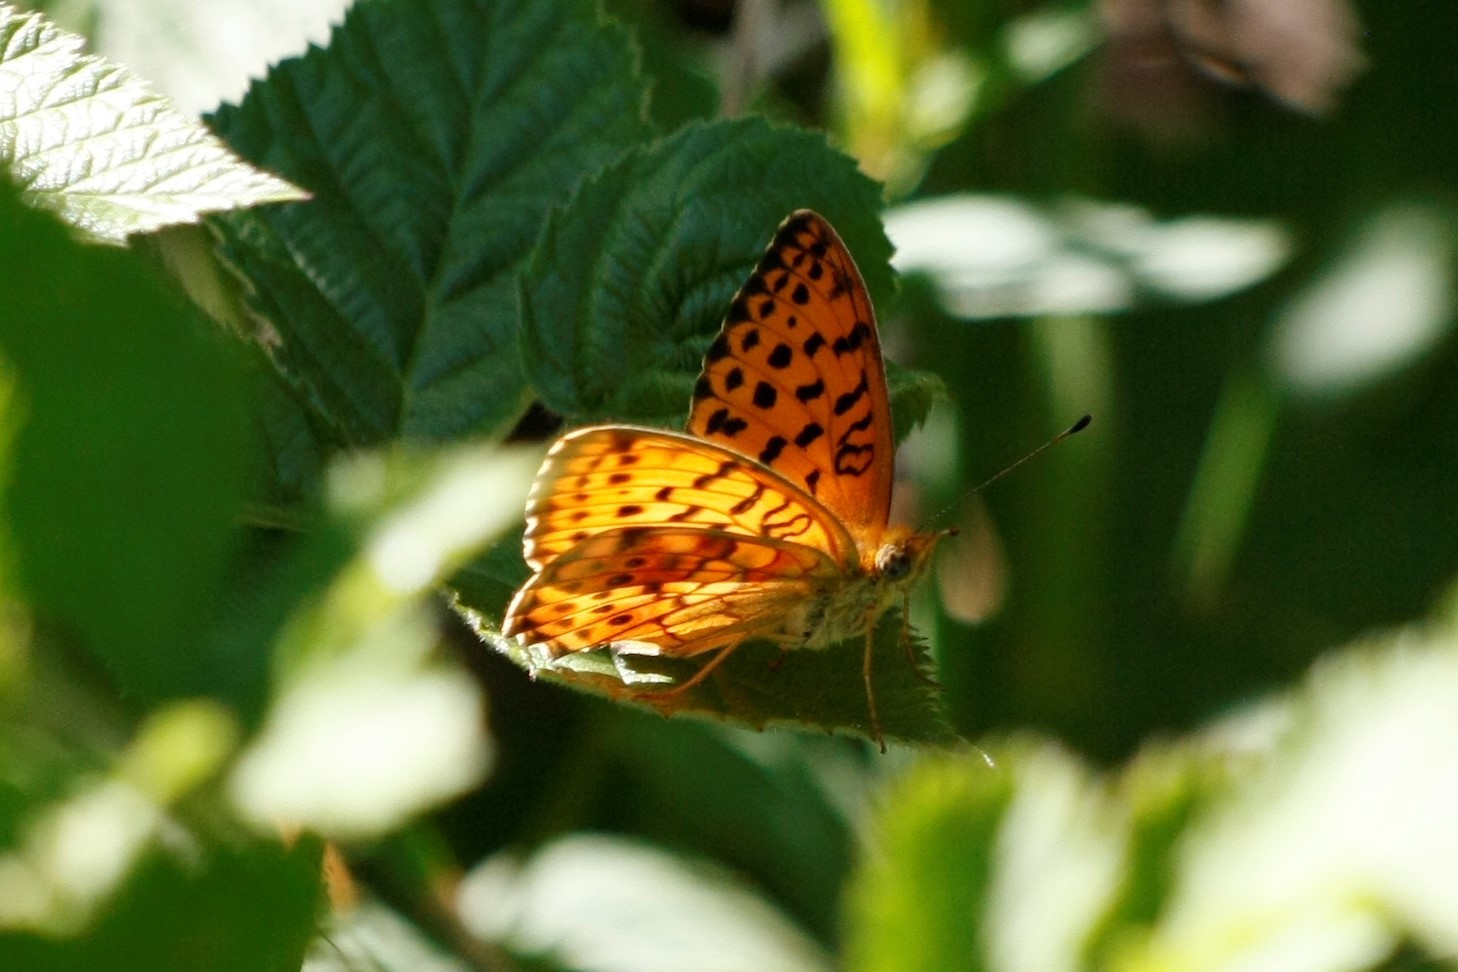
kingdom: Animalia
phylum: Arthropoda
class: Insecta
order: Lepidoptera
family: Nymphalidae
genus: Brenthis
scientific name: Brenthis daphne
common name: Marbled fritillary
